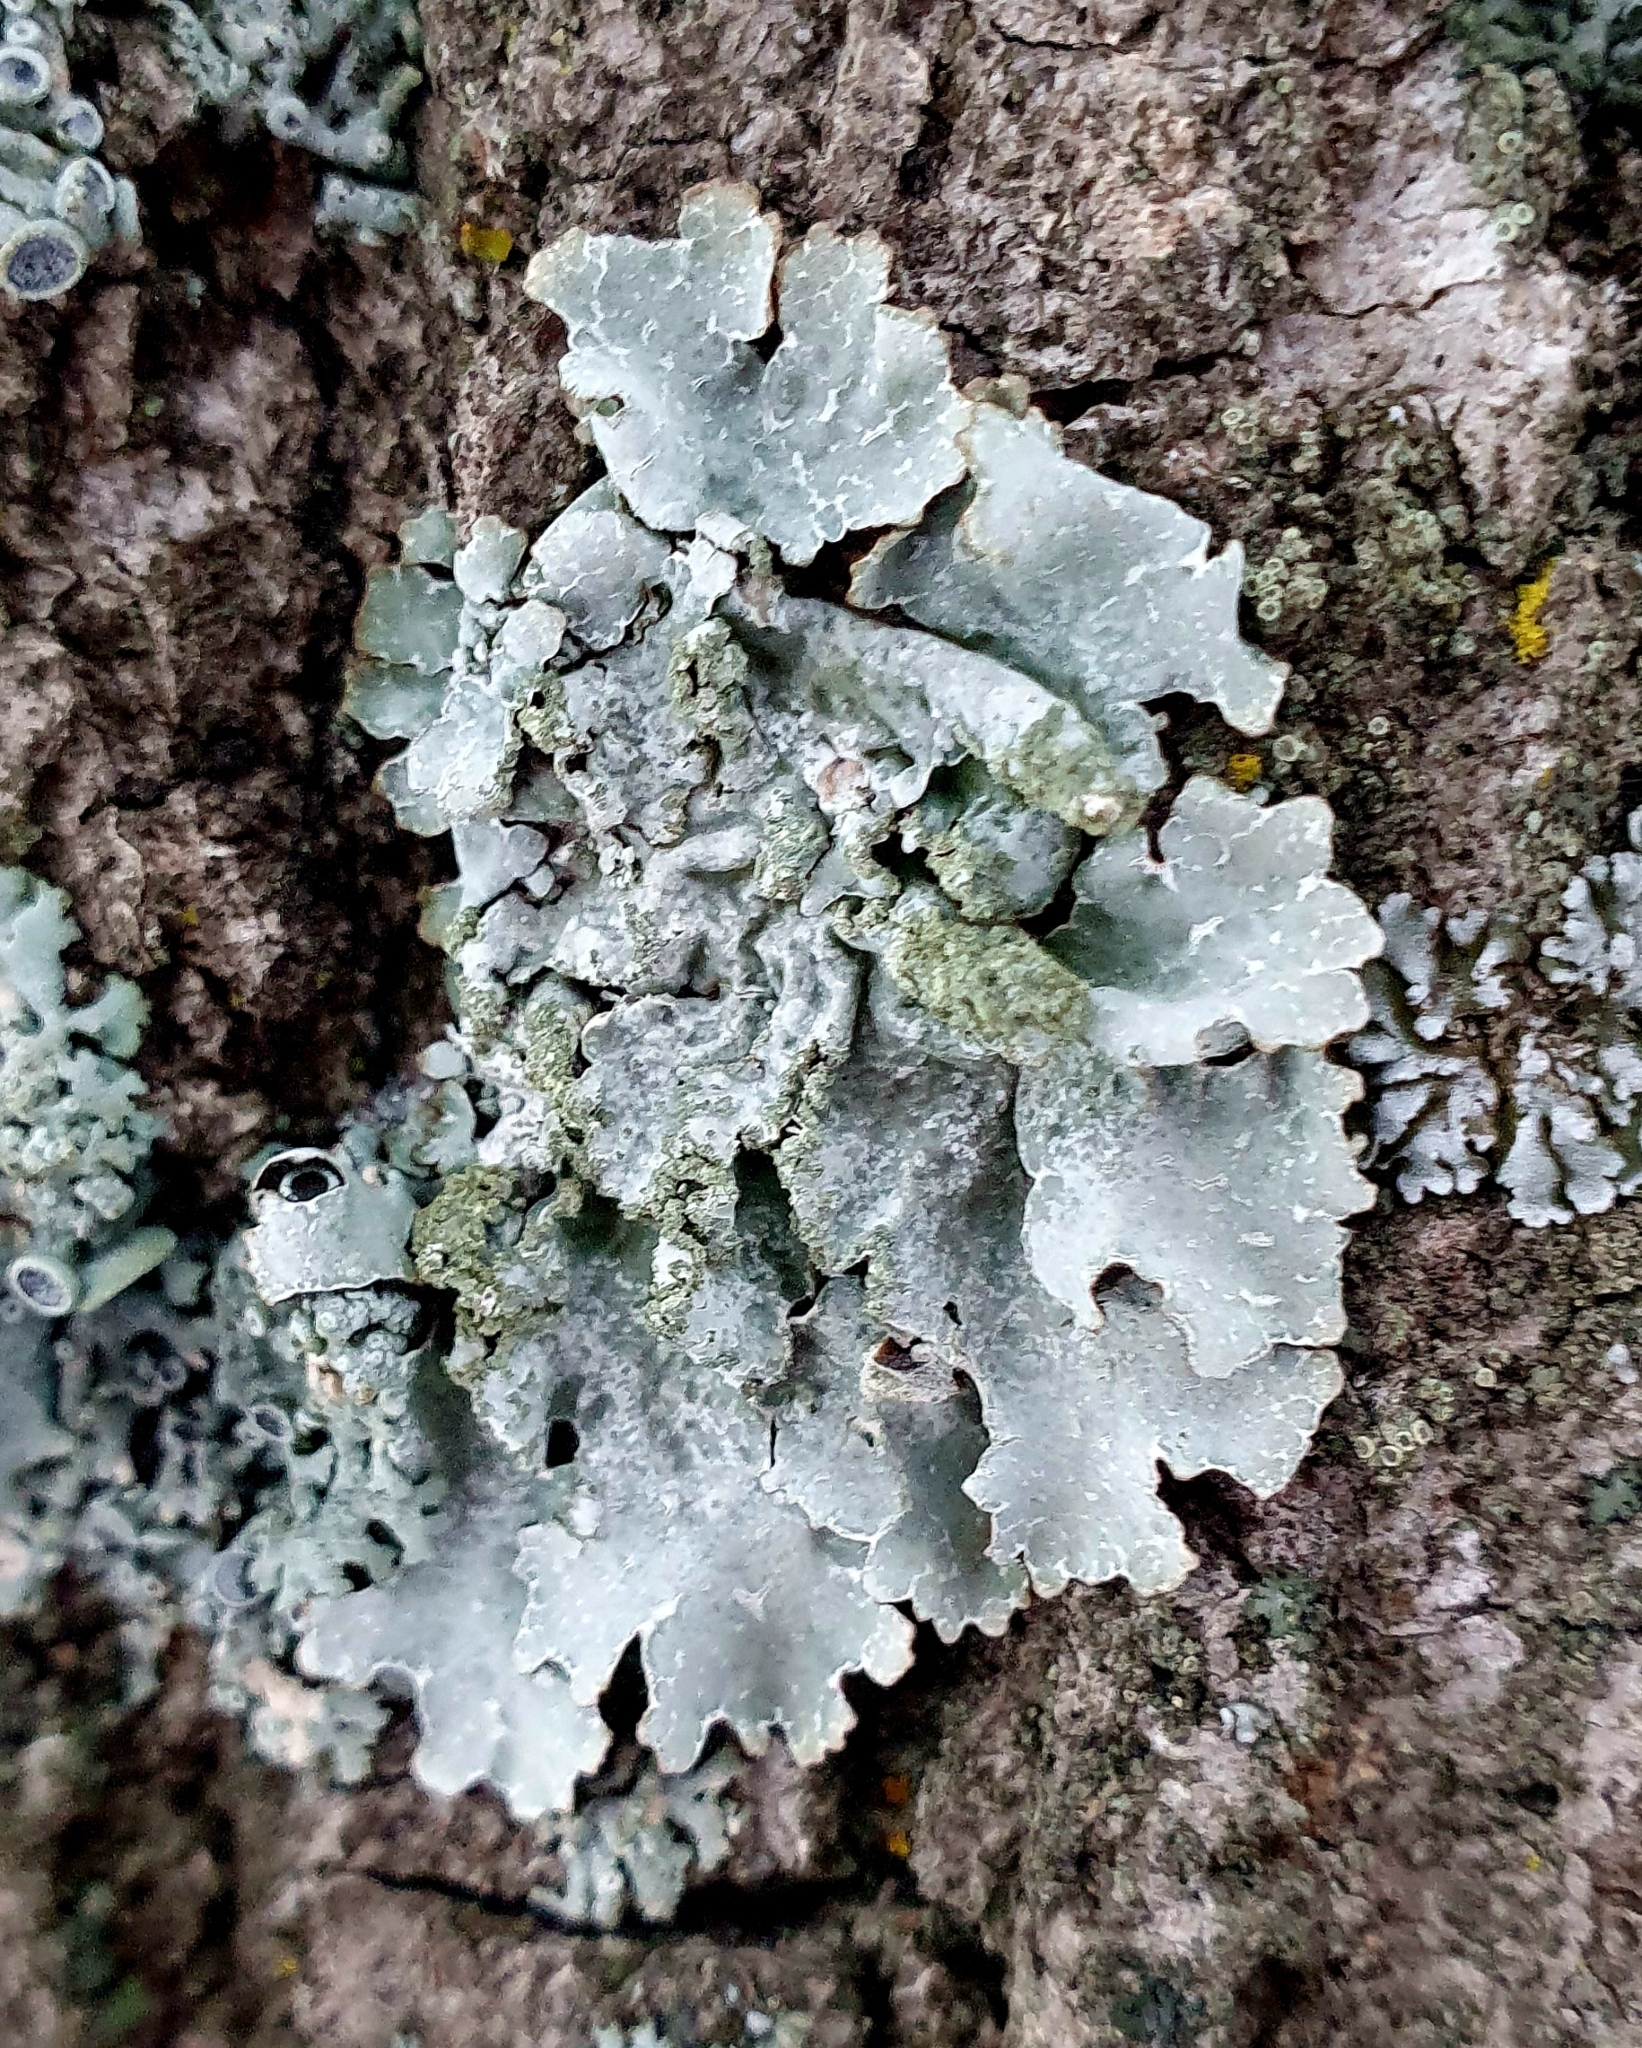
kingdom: Fungi
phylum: Ascomycota
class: Lecanoromycetes
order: Lecanorales
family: Parmeliaceae
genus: Parmelia
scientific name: Parmelia sulcata
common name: Netted shield lichen
